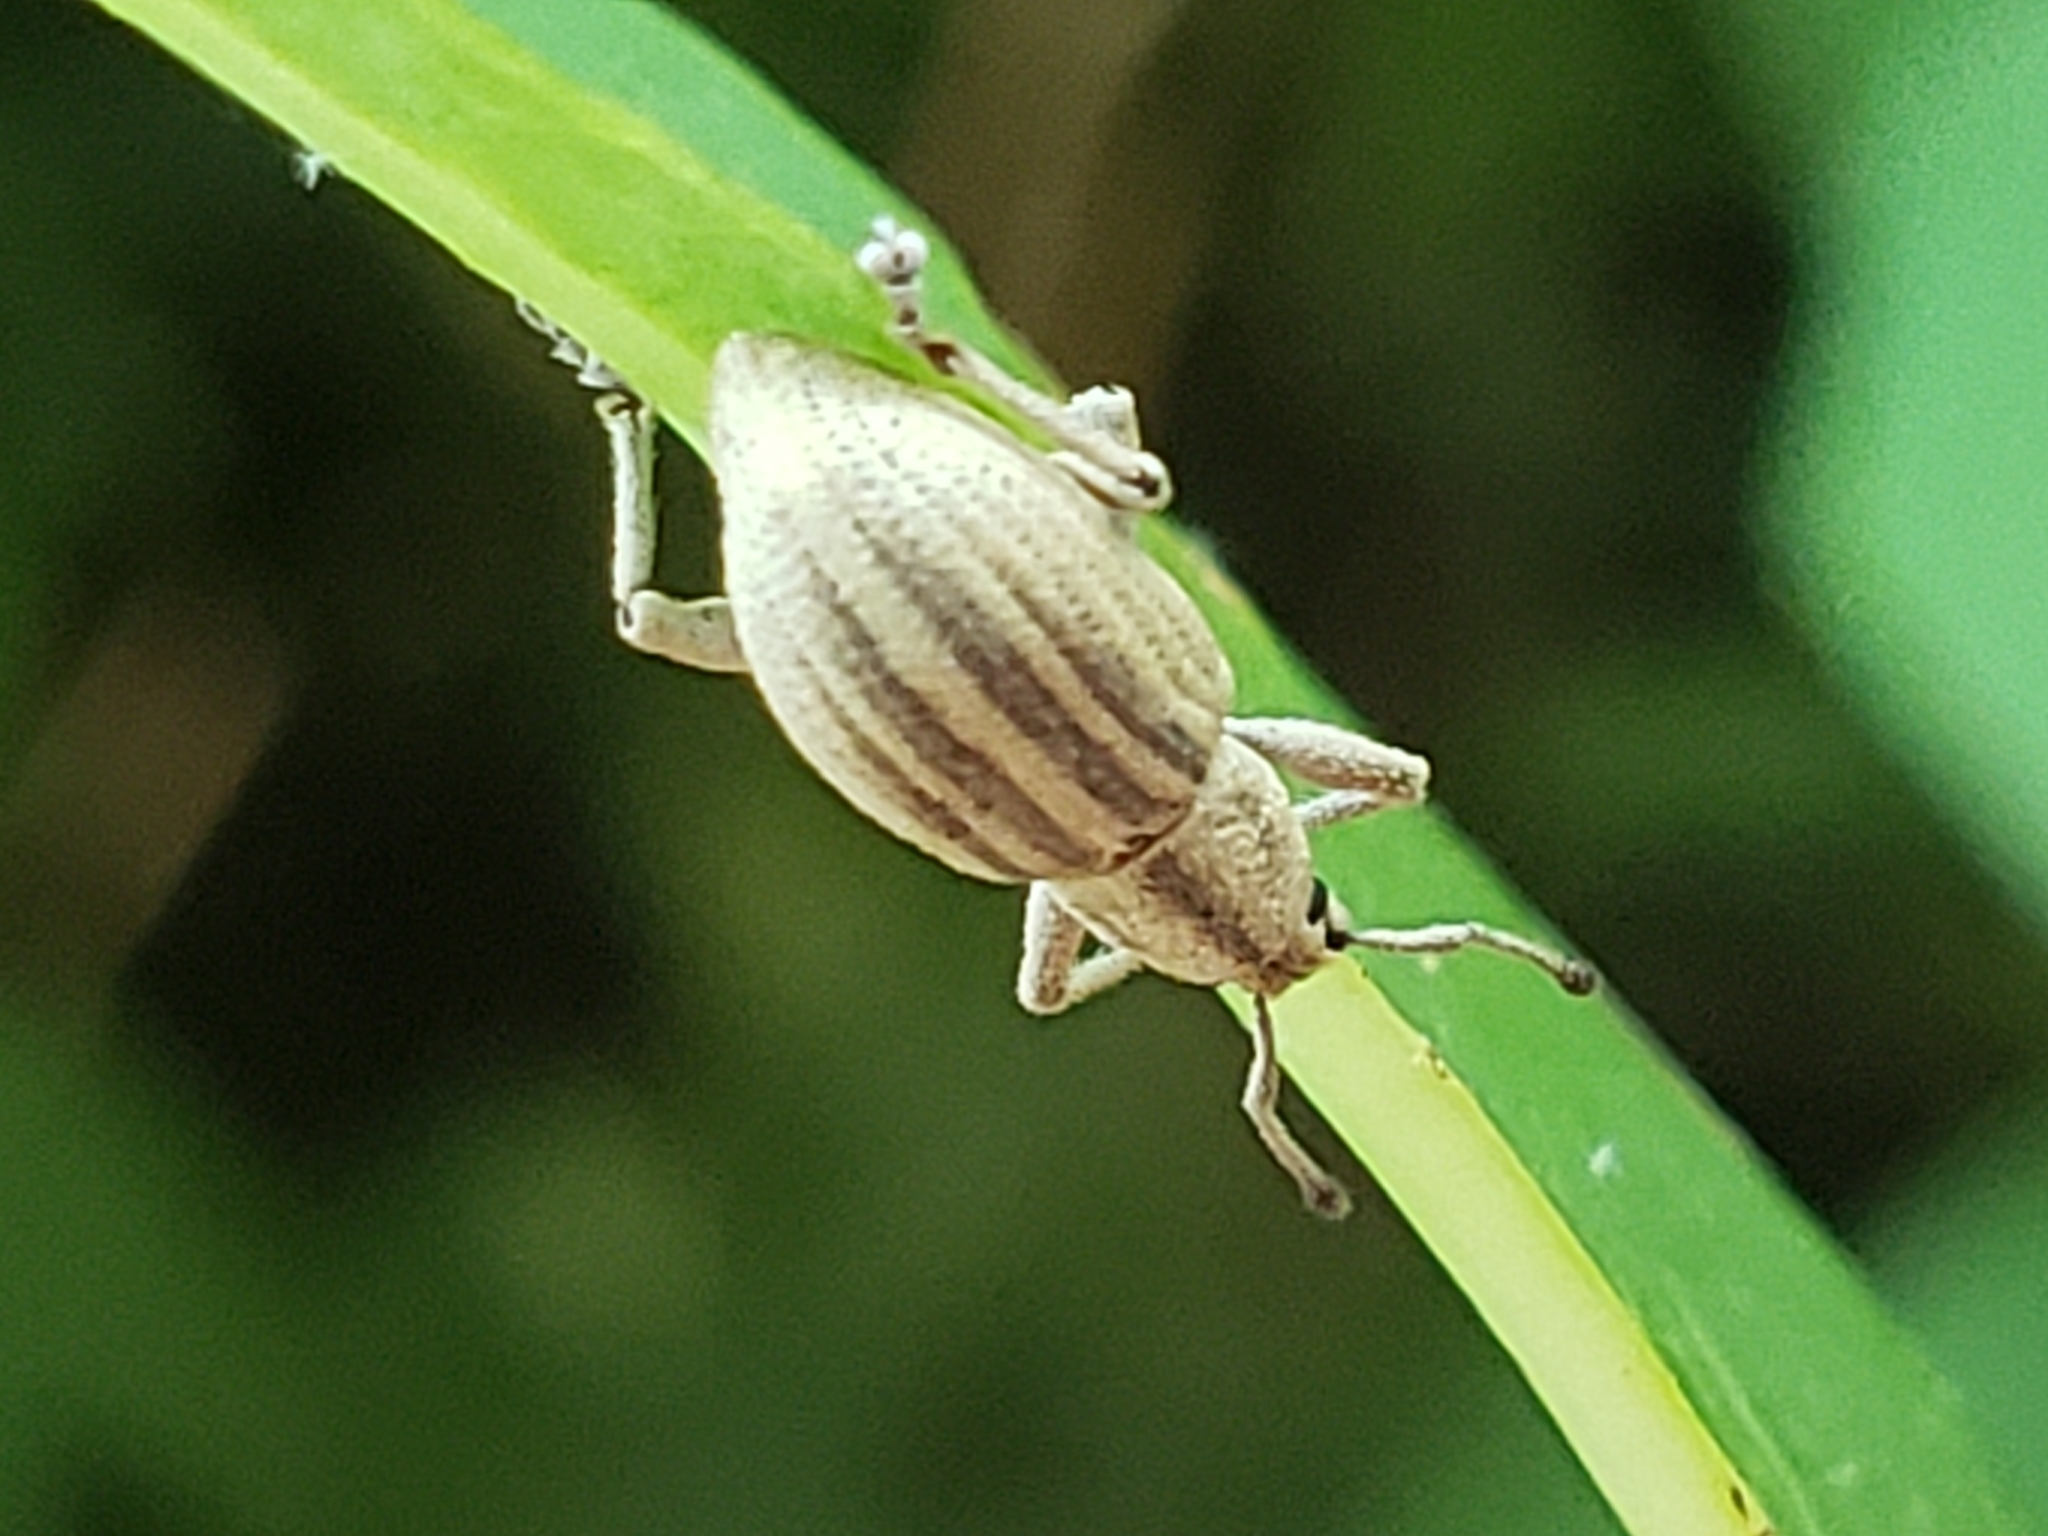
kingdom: Animalia
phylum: Arthropoda
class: Insecta
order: Coleoptera
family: Curculionidae
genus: Aphrastus
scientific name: Aphrastus taeniatus
